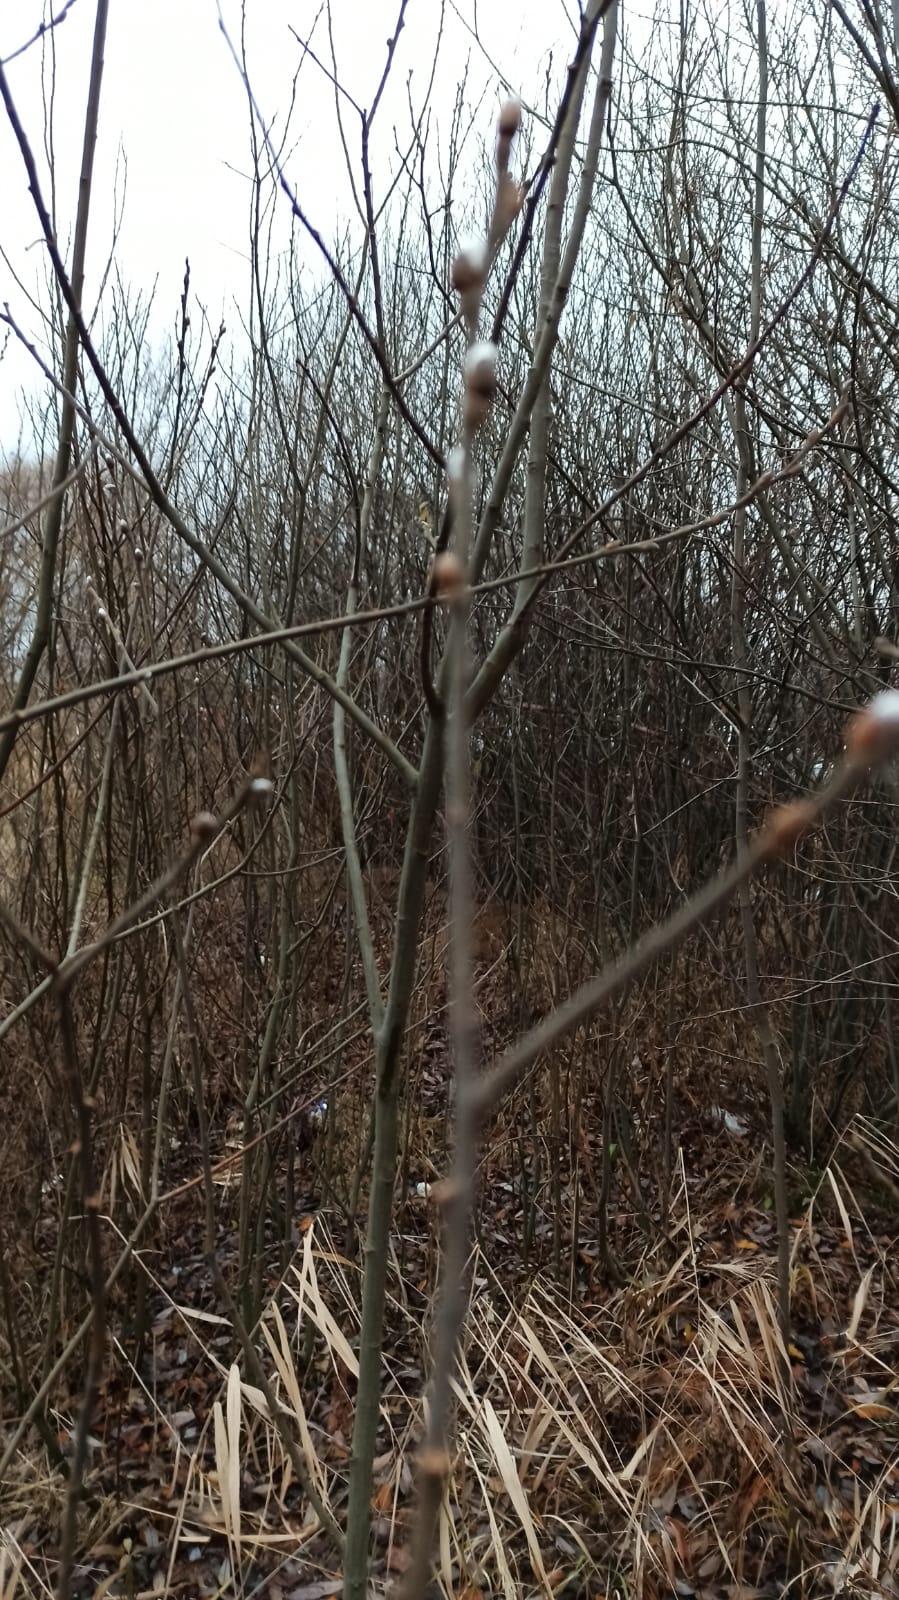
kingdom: Plantae
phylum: Tracheophyta
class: Magnoliopsida
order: Malpighiales
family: Salicaceae
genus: Salix
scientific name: Salix caprea
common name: Goat willow
